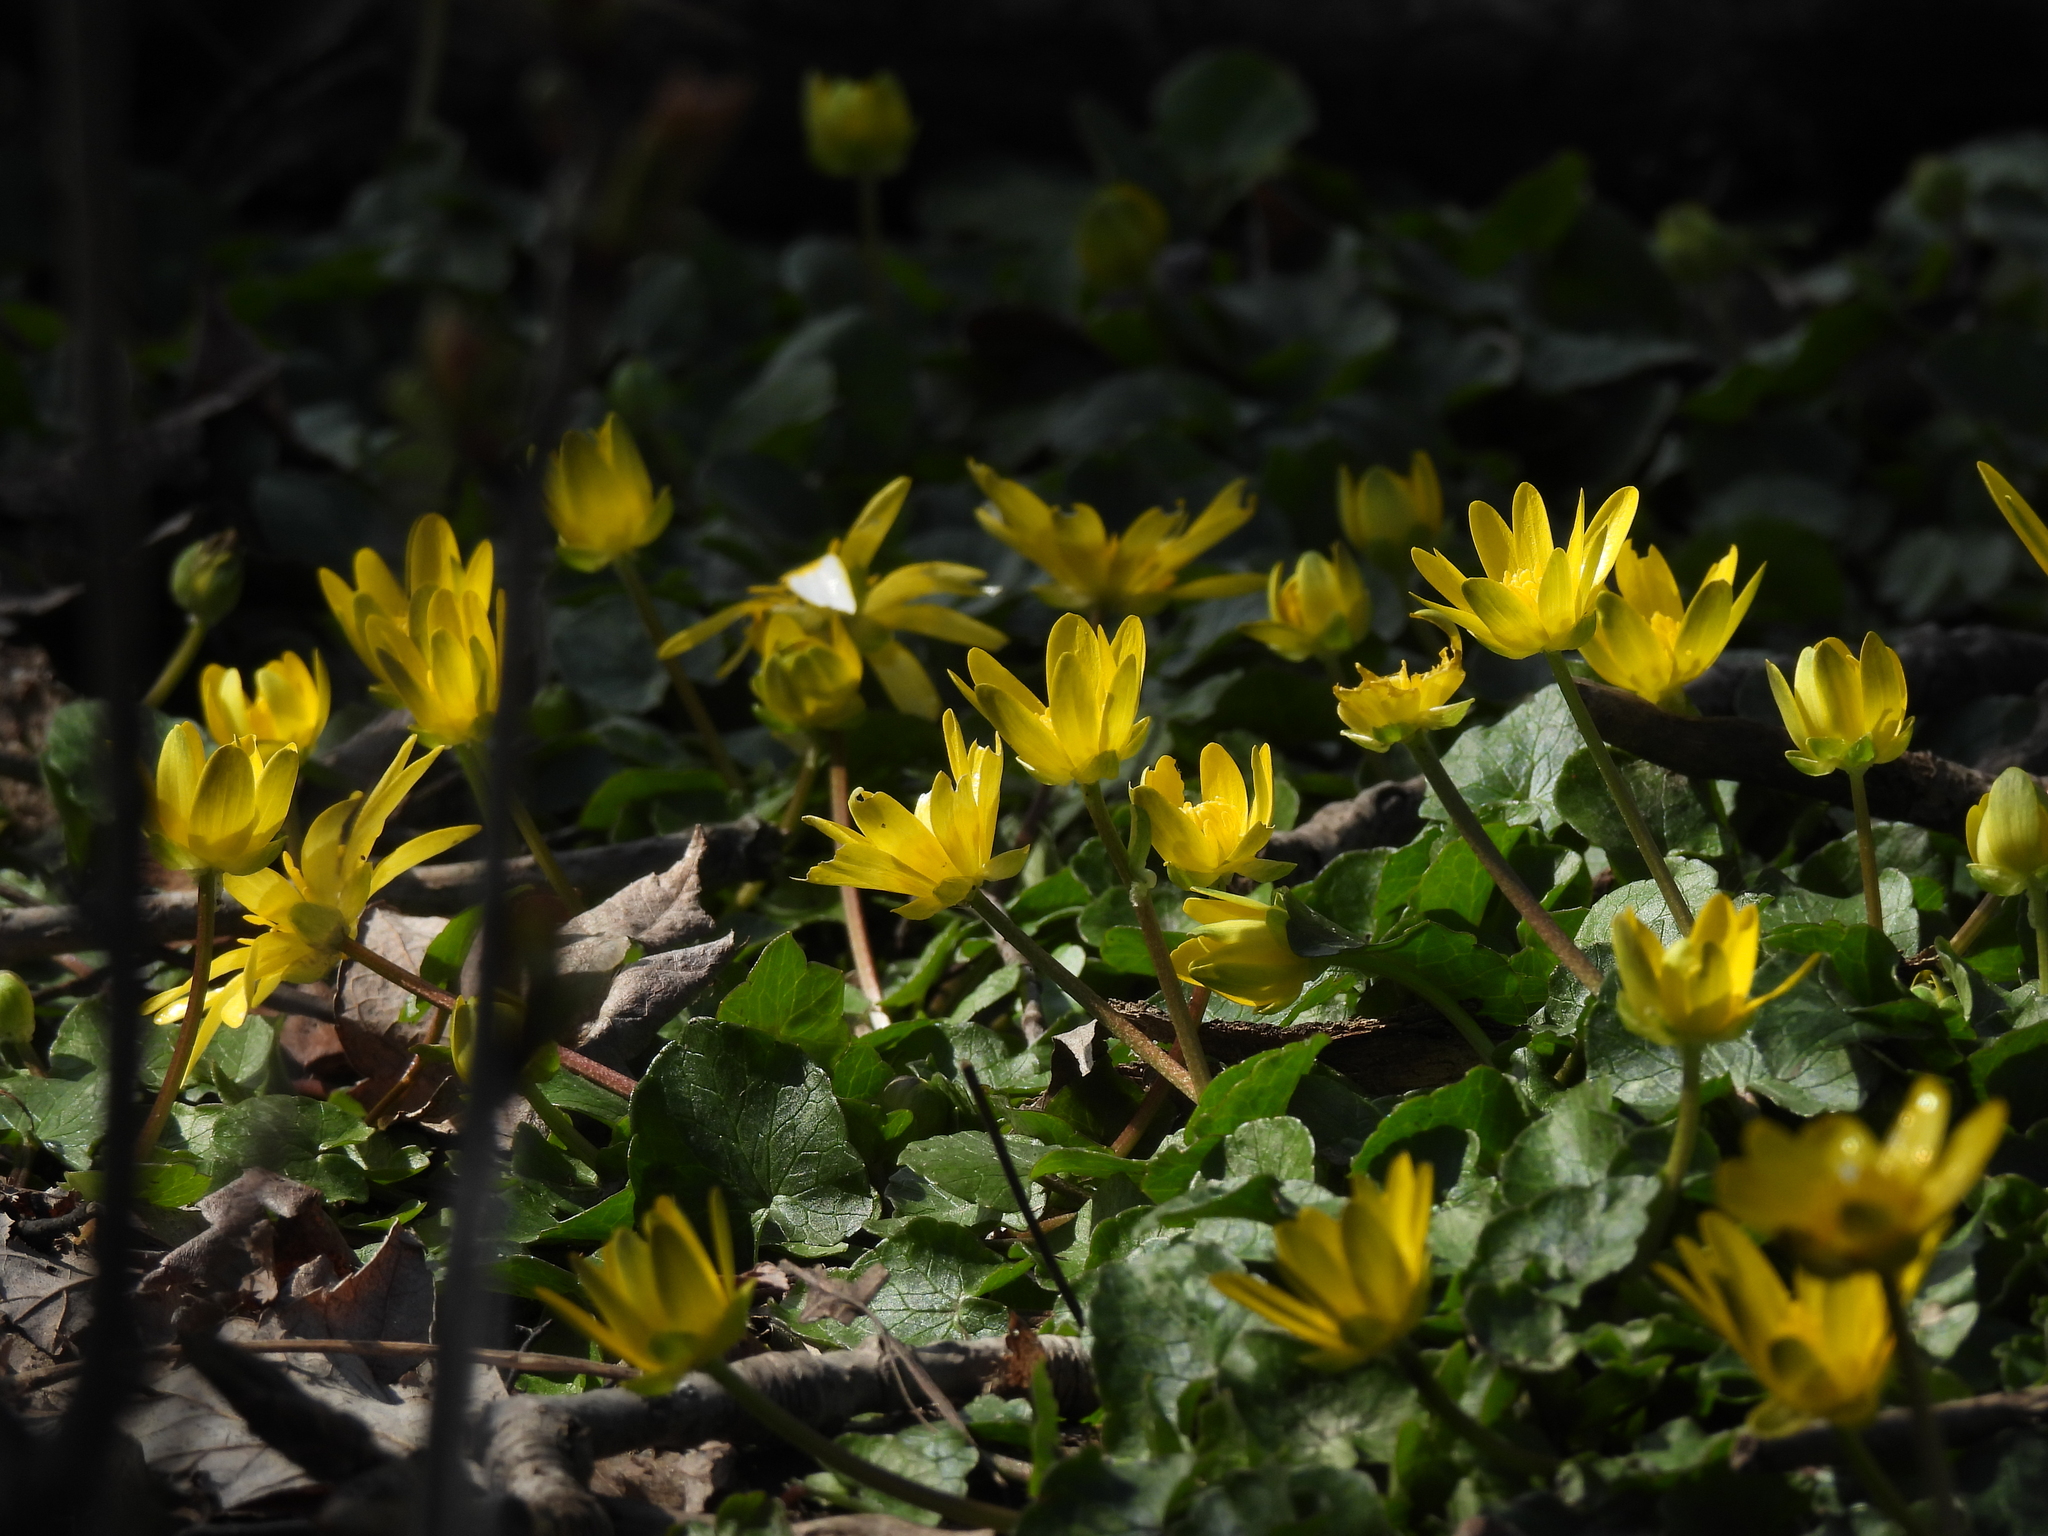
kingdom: Plantae
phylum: Tracheophyta
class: Magnoliopsida
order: Ranunculales
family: Ranunculaceae
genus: Ficaria
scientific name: Ficaria verna
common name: Lesser celandine
